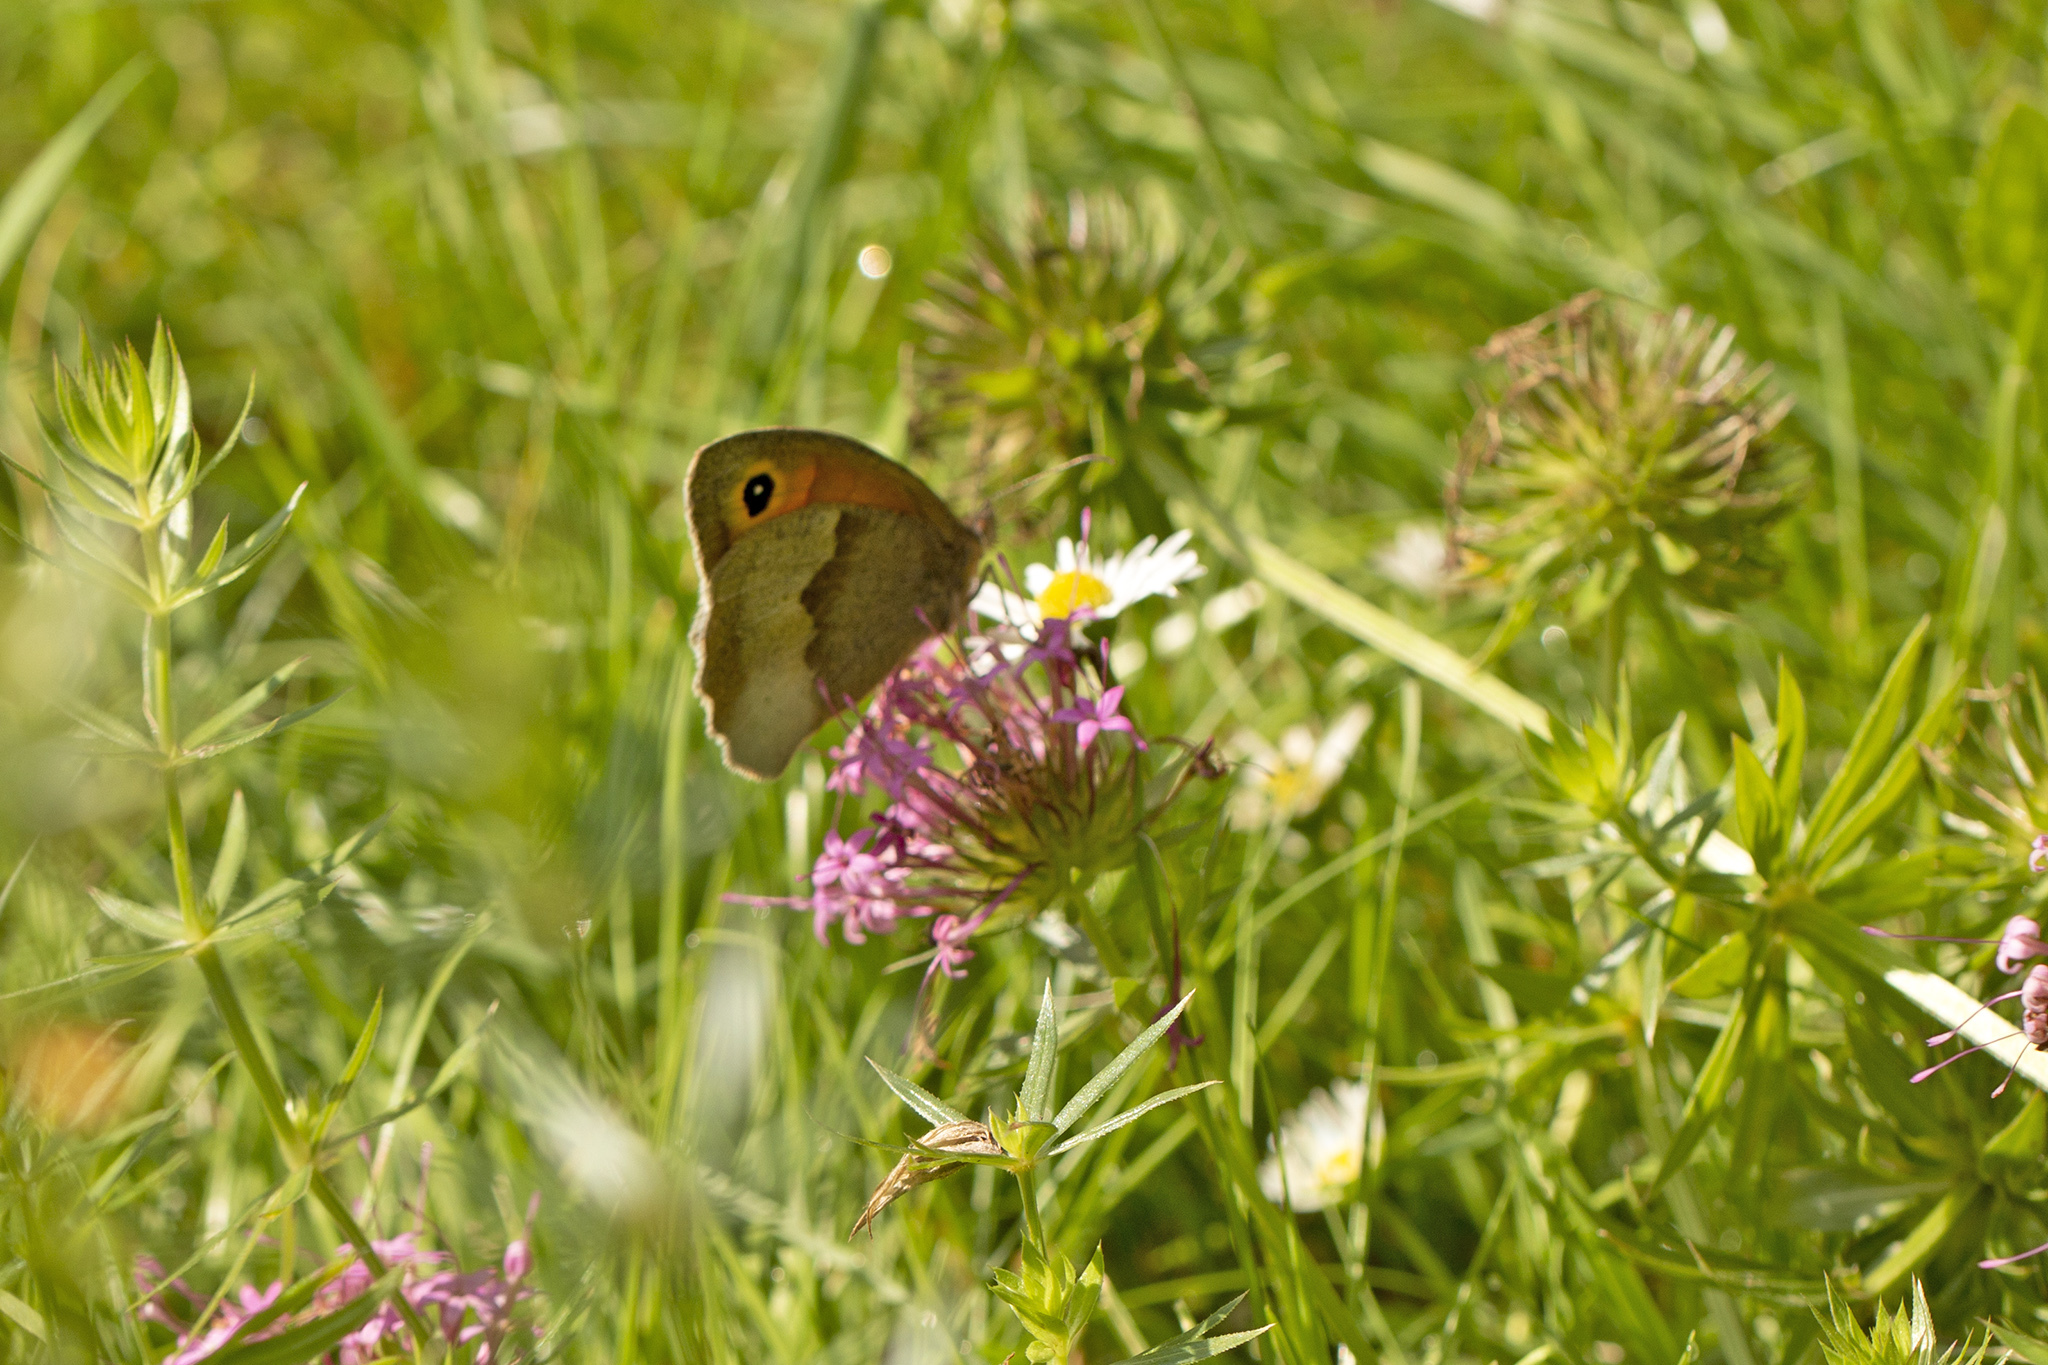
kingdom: Animalia
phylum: Arthropoda
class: Insecta
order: Lepidoptera
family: Nymphalidae
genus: Maniola
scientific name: Maniola jurtina
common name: Meadow brown
